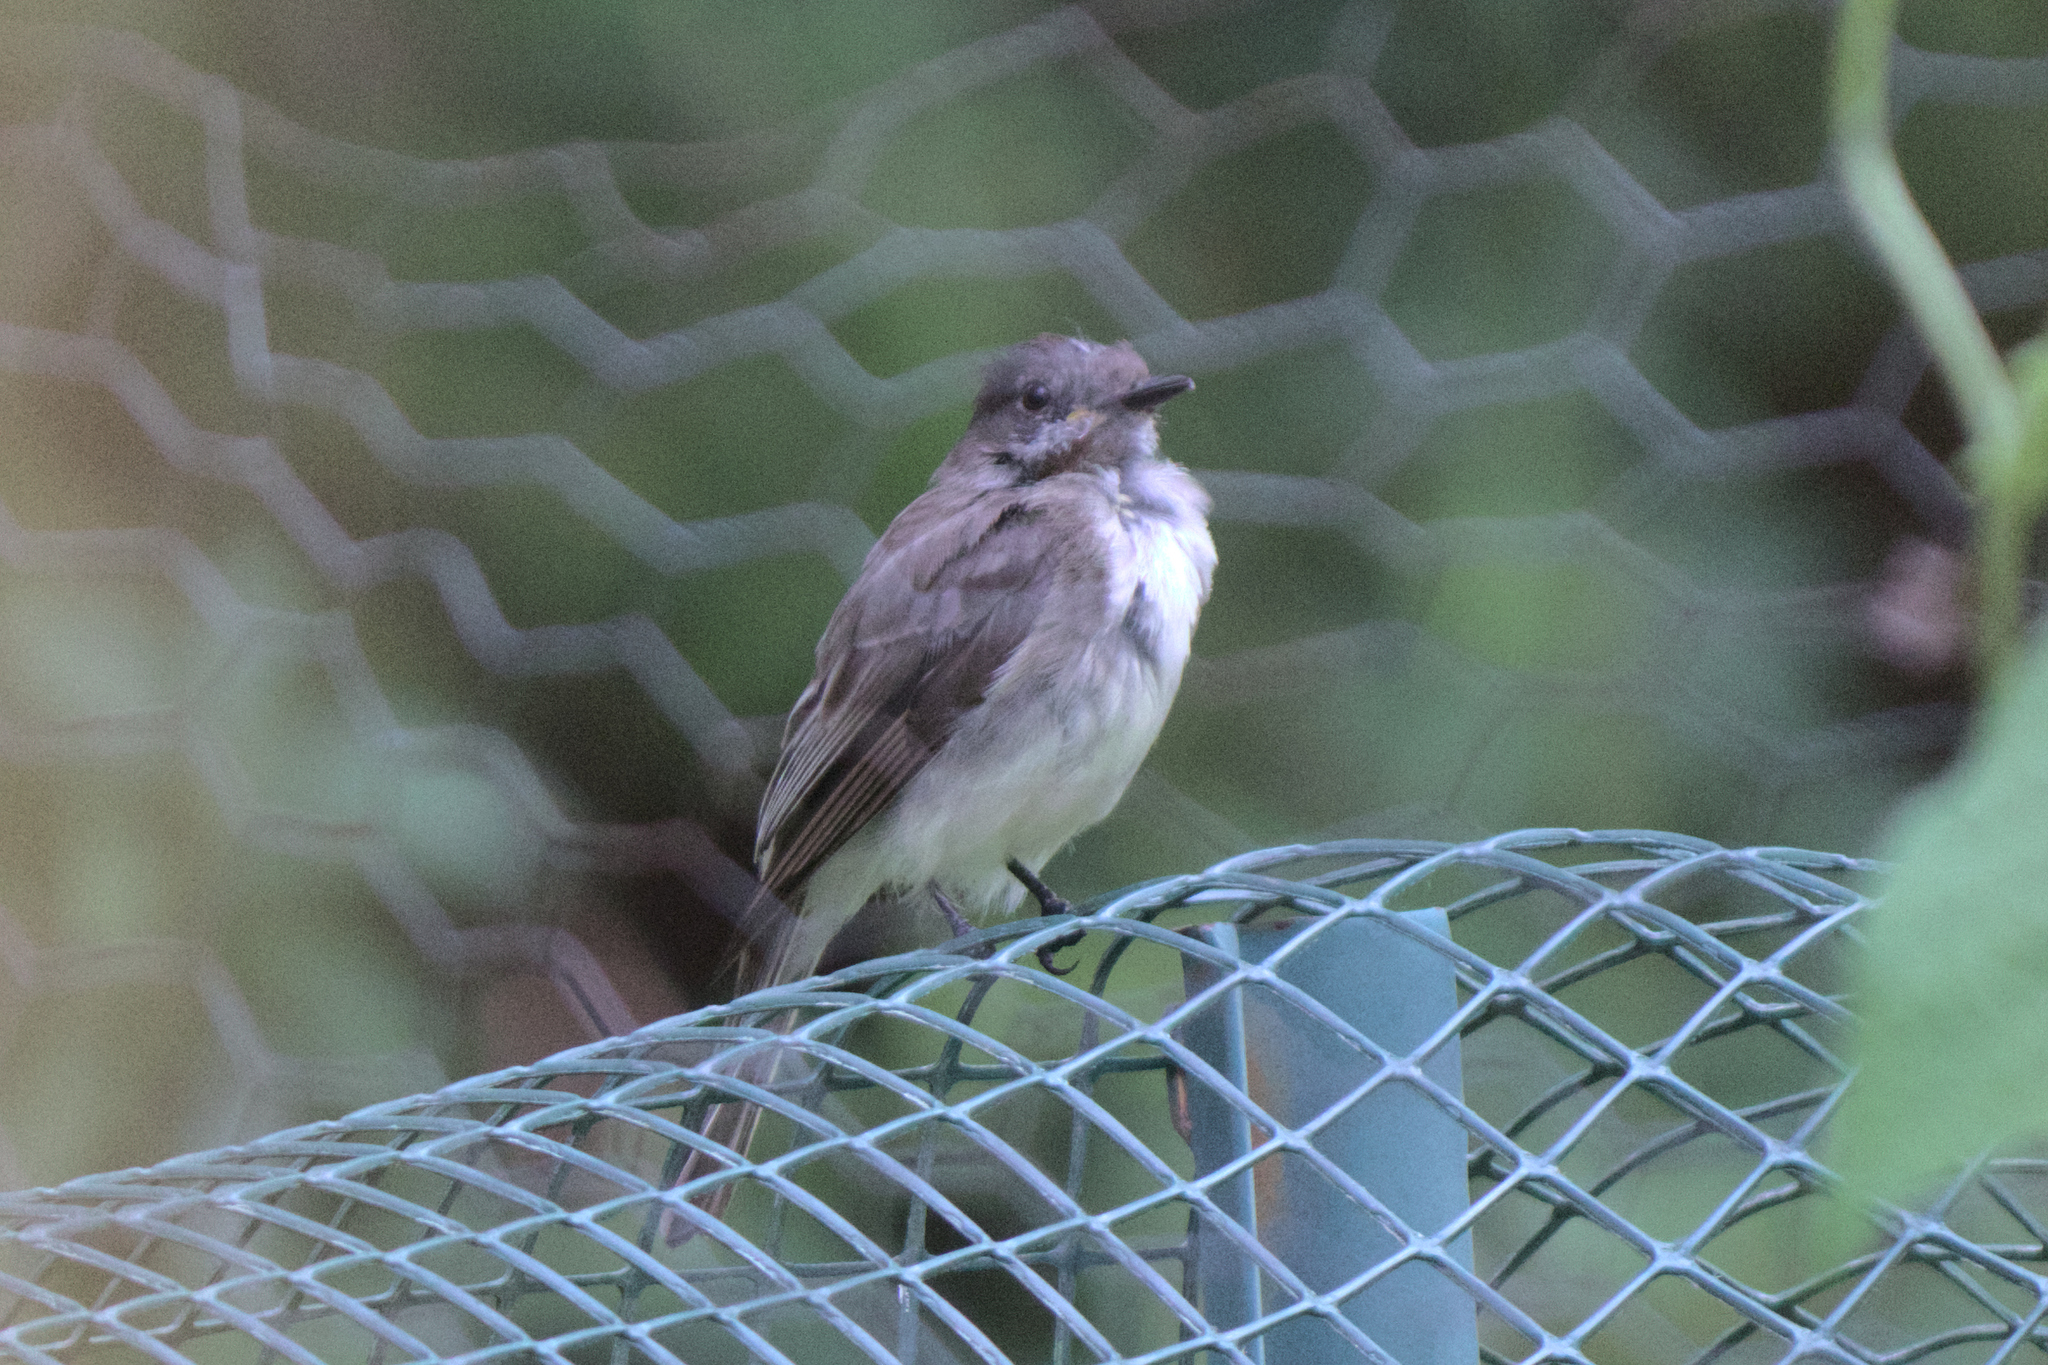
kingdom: Animalia
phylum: Chordata
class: Aves
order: Passeriformes
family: Tyrannidae
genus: Sayornis
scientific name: Sayornis phoebe
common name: Eastern phoebe
